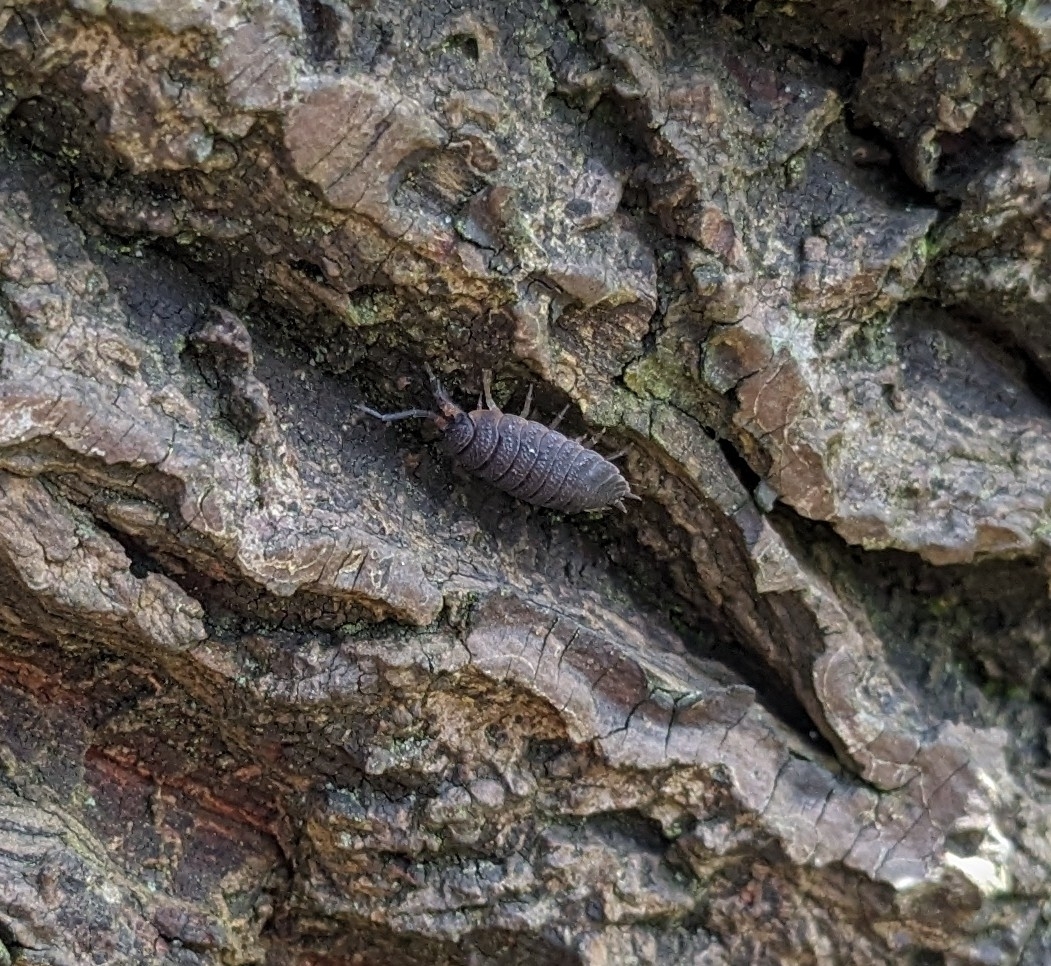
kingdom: Animalia
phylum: Arthropoda
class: Malacostraca
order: Isopoda
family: Porcellionidae
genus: Porcellio
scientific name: Porcellio scaber
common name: Common rough woodlouse
